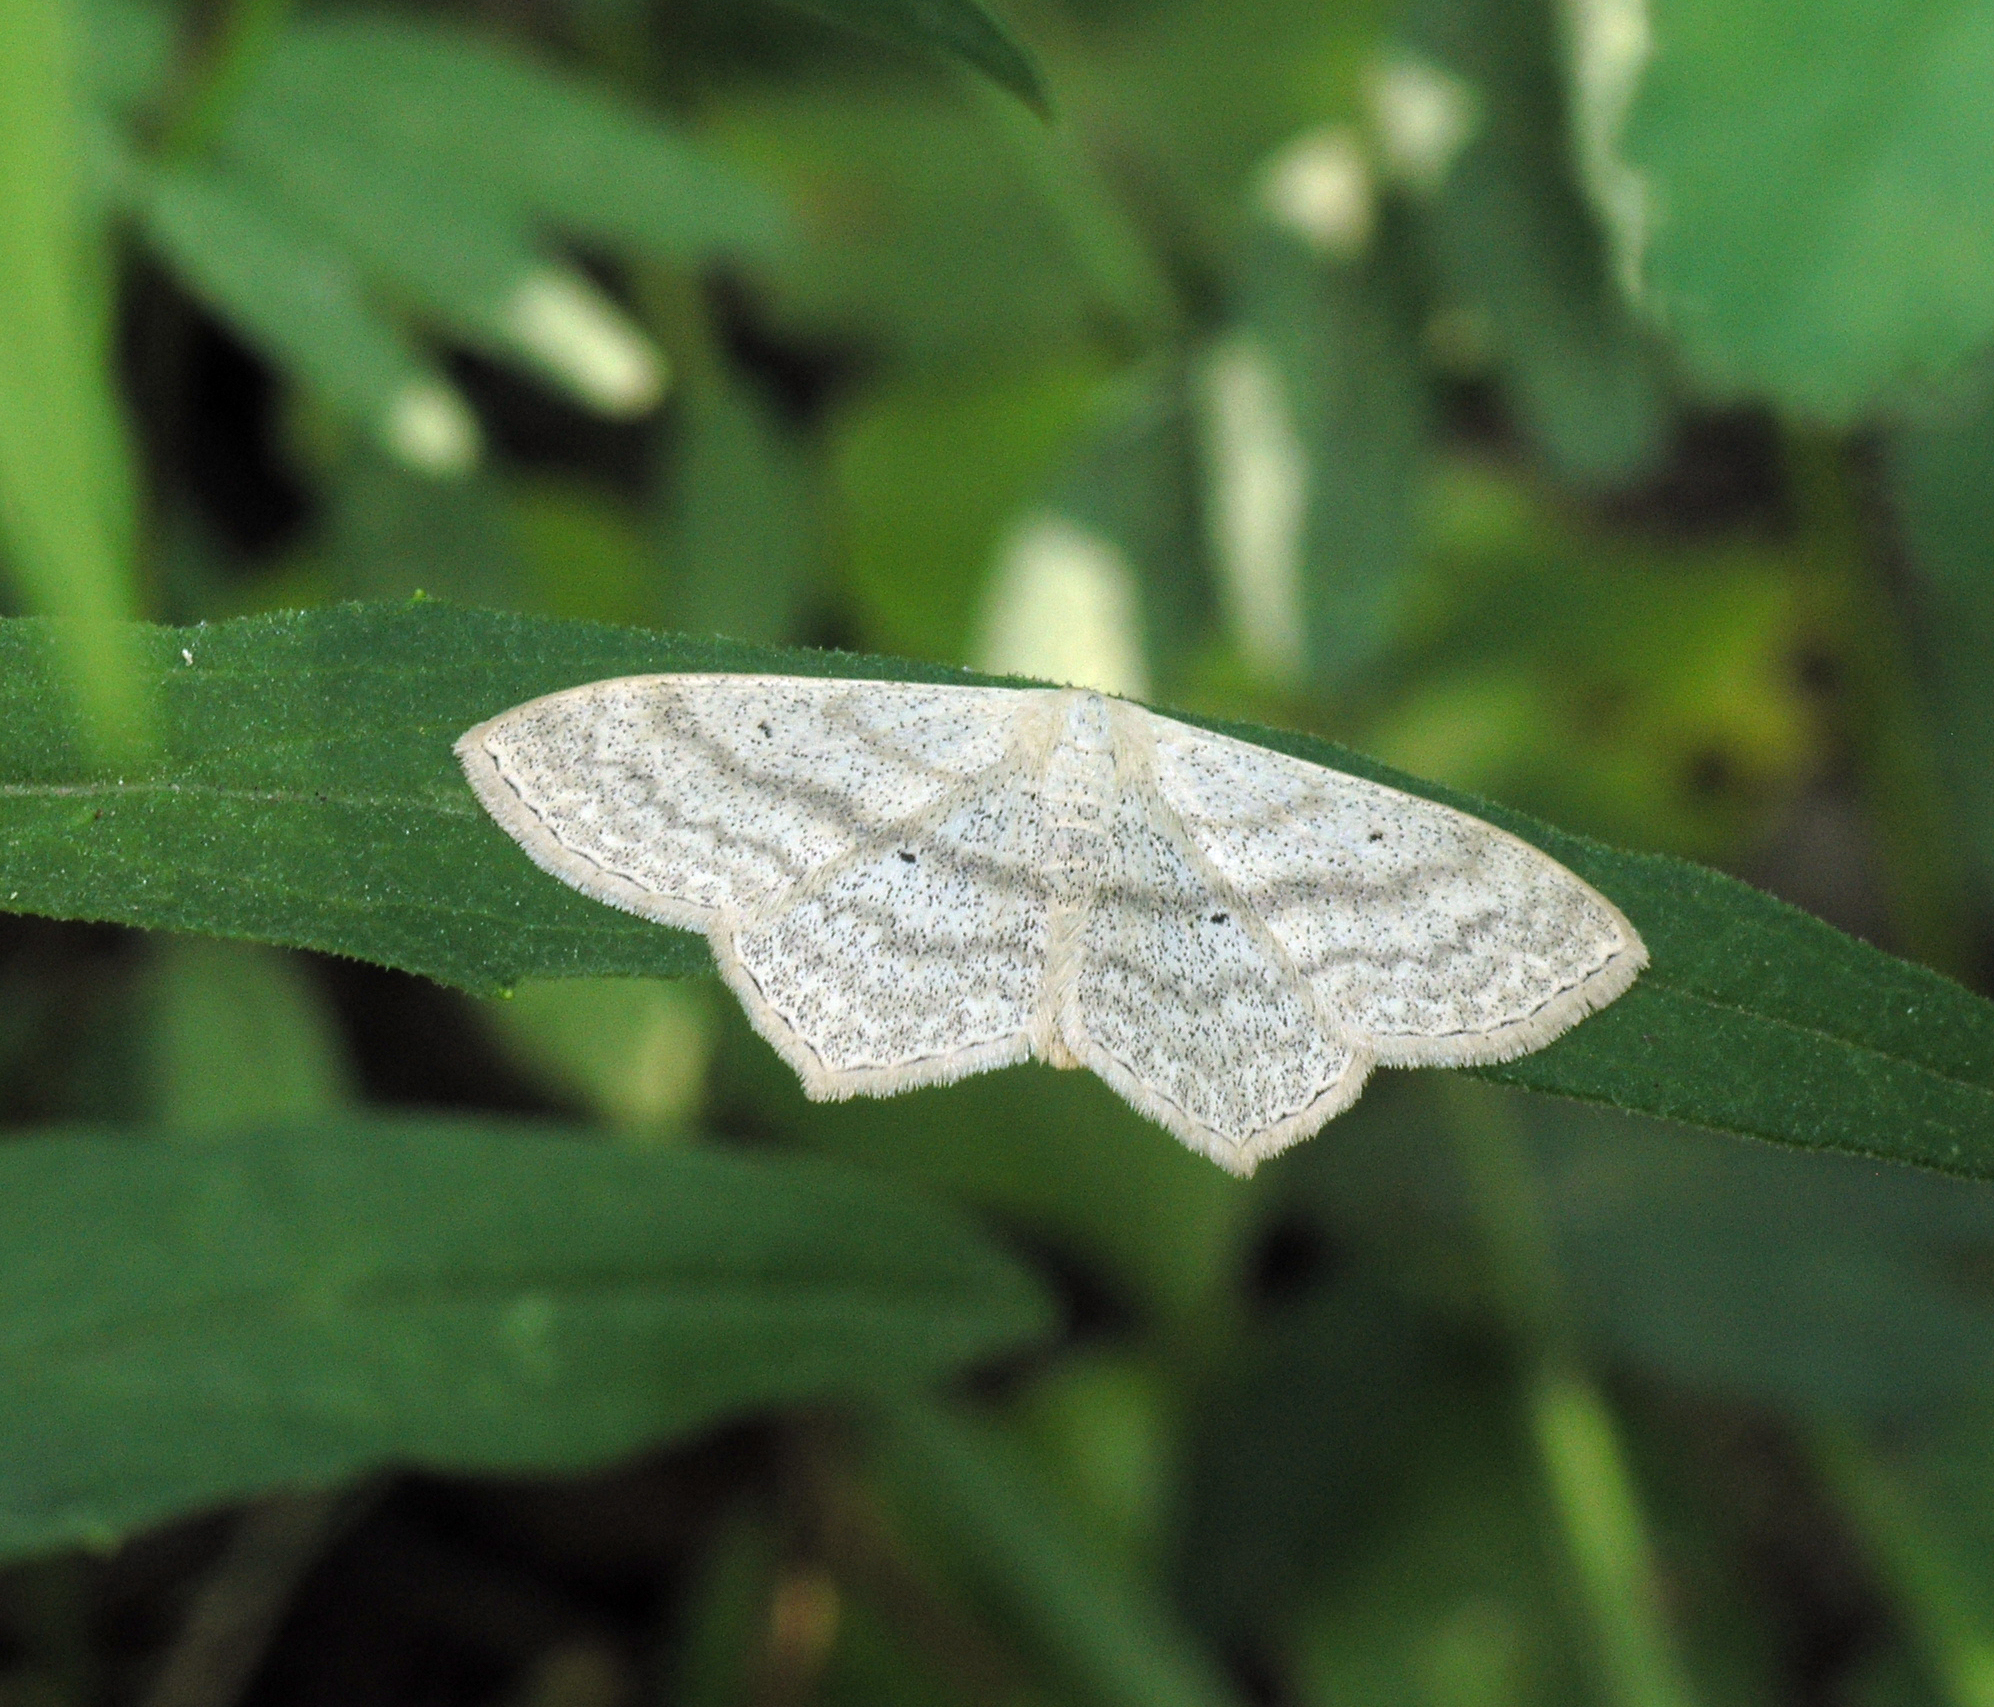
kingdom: Animalia
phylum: Arthropoda
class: Insecta
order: Lepidoptera
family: Geometridae
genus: Scopula
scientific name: Scopula nigropunctata
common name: Sub-angled wave
